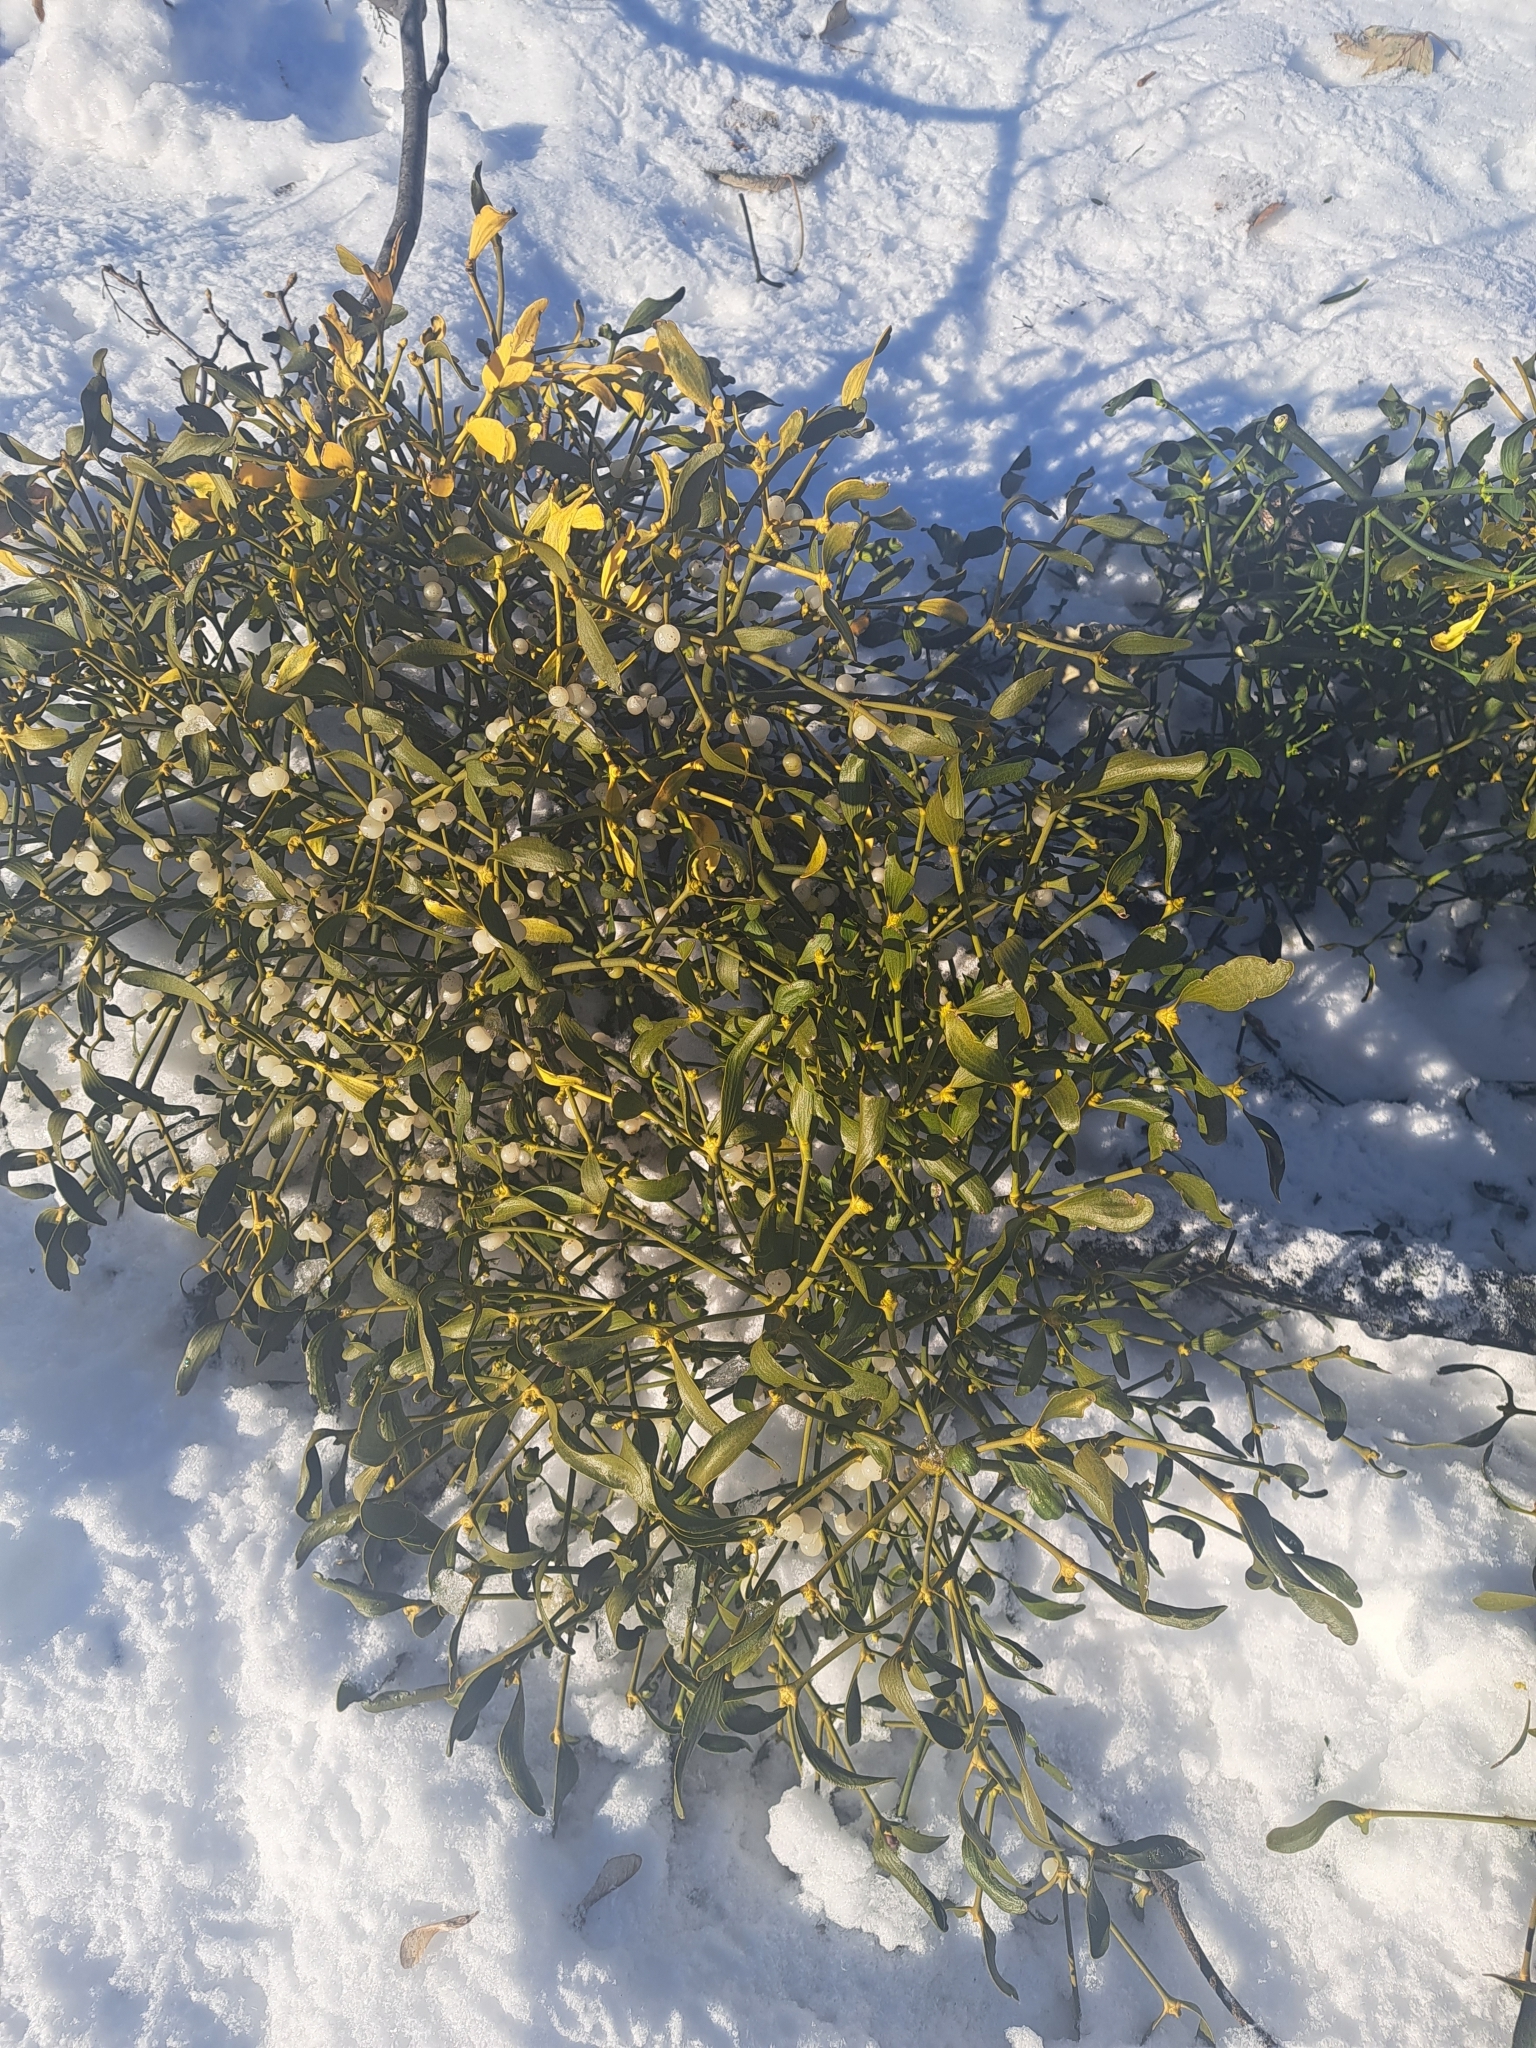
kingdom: Plantae
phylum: Tracheophyta
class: Magnoliopsida
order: Santalales
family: Viscaceae
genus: Viscum
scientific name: Viscum album
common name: Mistletoe
